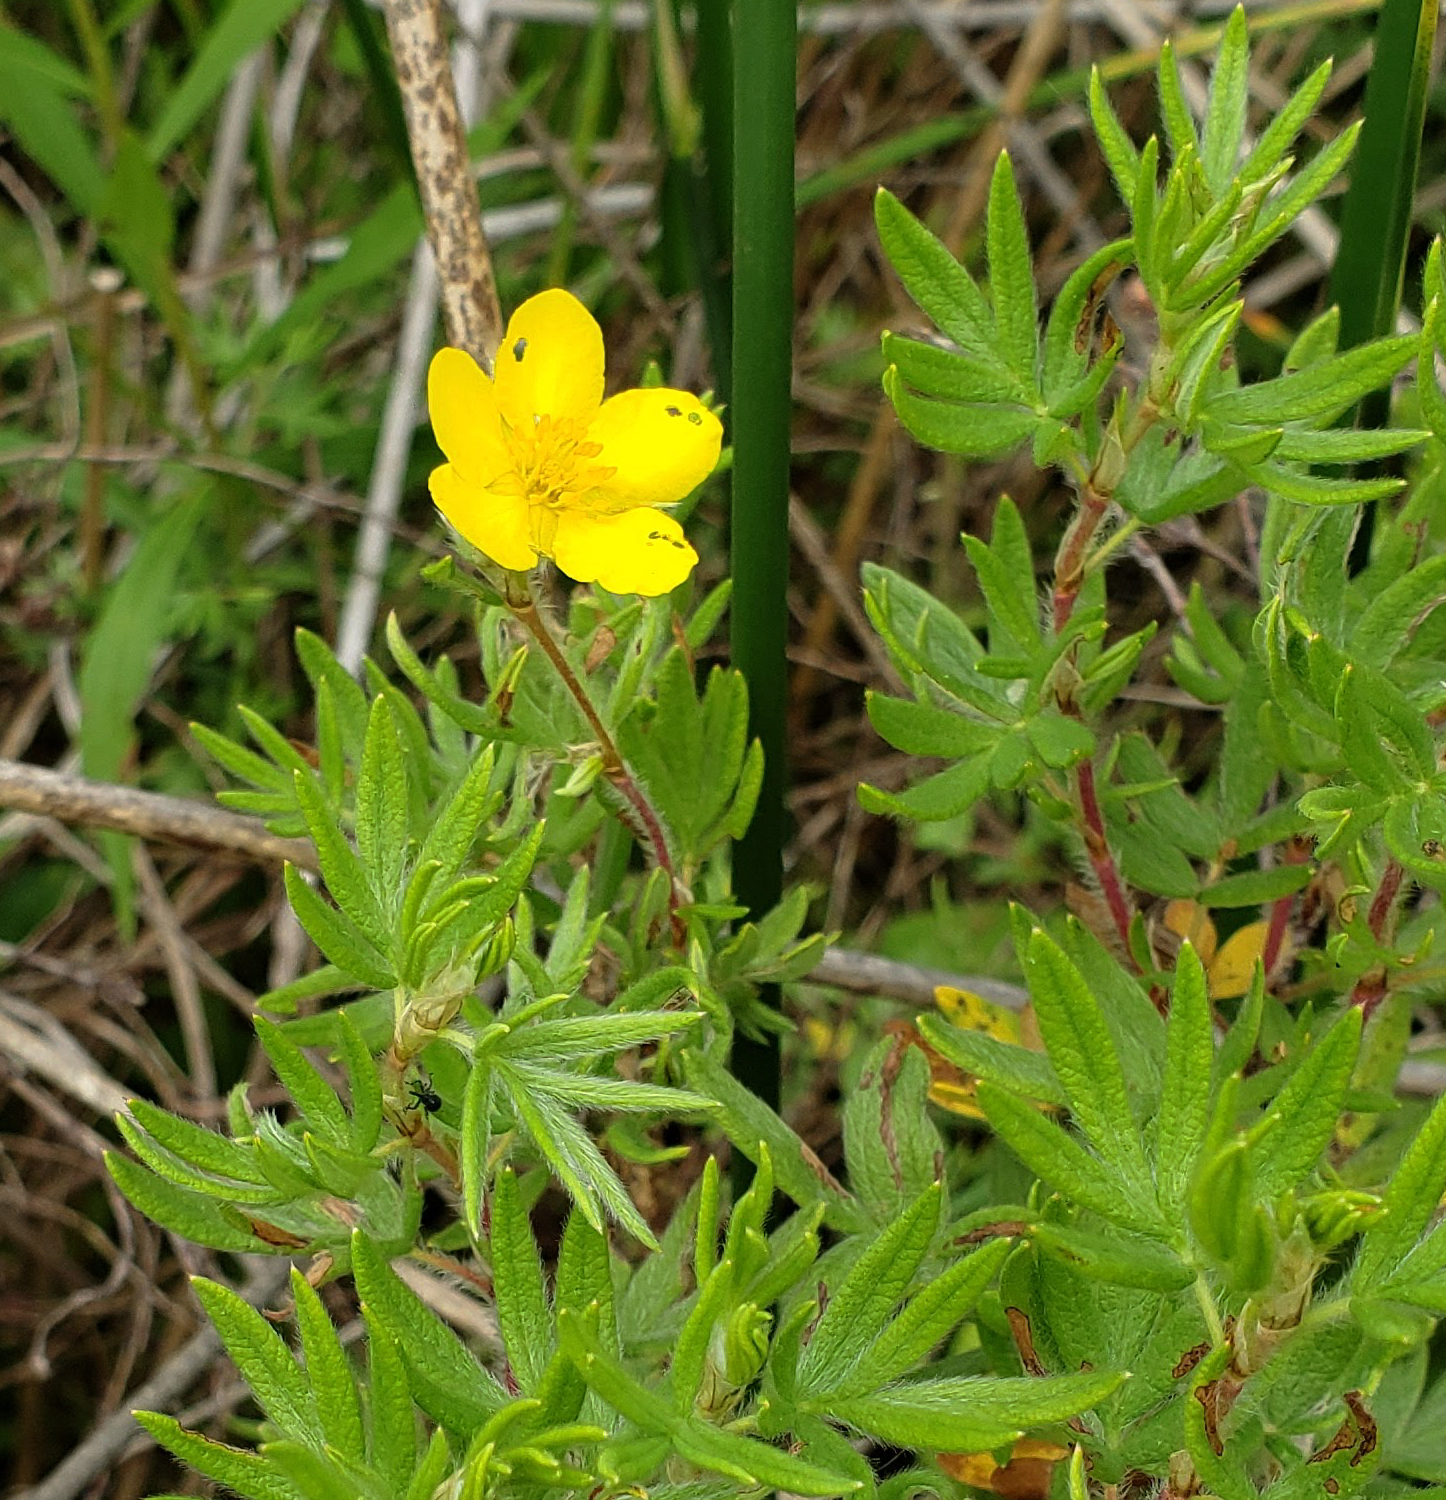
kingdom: Plantae
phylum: Tracheophyta
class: Magnoliopsida
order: Rosales
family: Rosaceae
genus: Dasiphora
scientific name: Dasiphora fruticosa
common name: Shrubby cinquefoil
